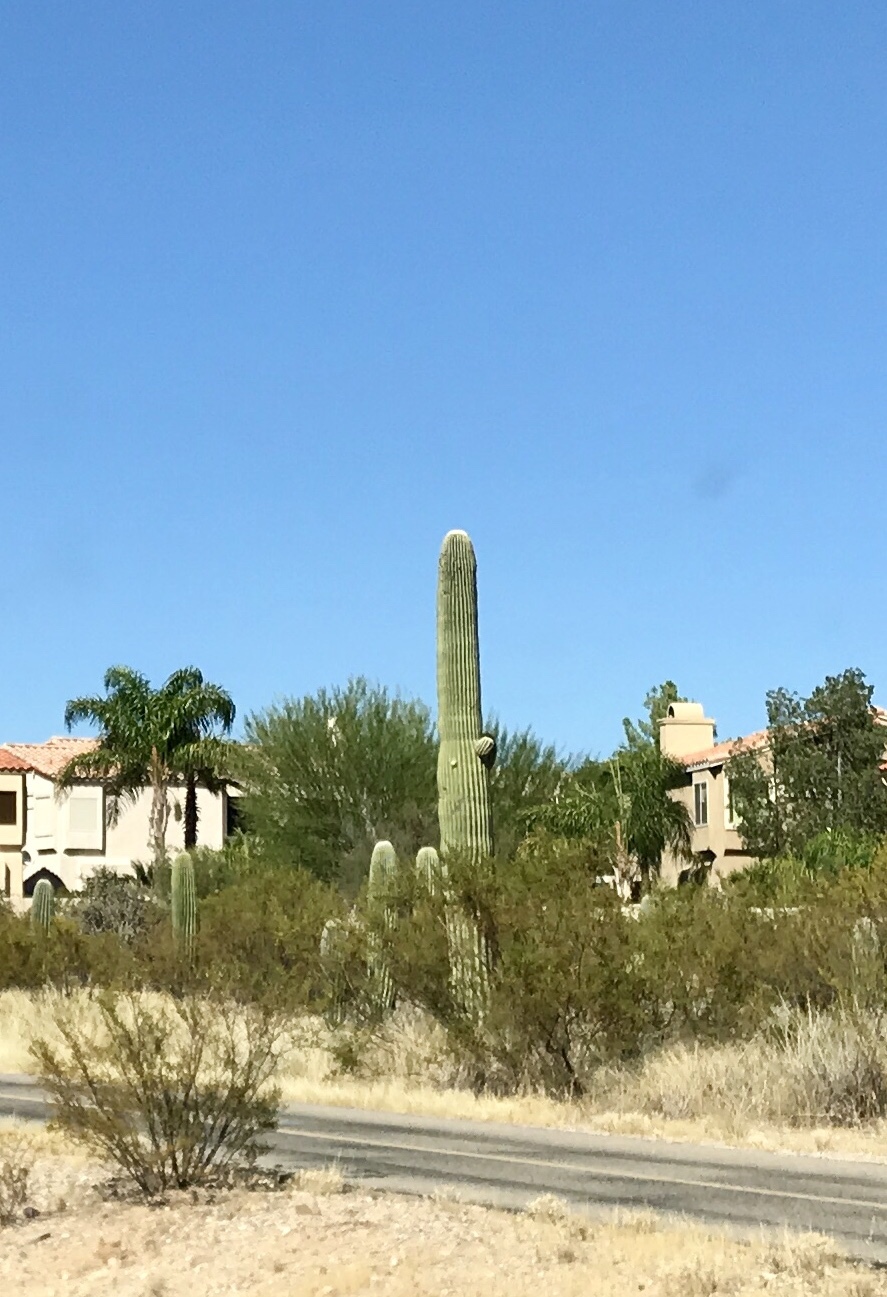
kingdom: Plantae
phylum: Tracheophyta
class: Magnoliopsida
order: Caryophyllales
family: Cactaceae
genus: Carnegiea
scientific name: Carnegiea gigantea
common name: Saguaro
